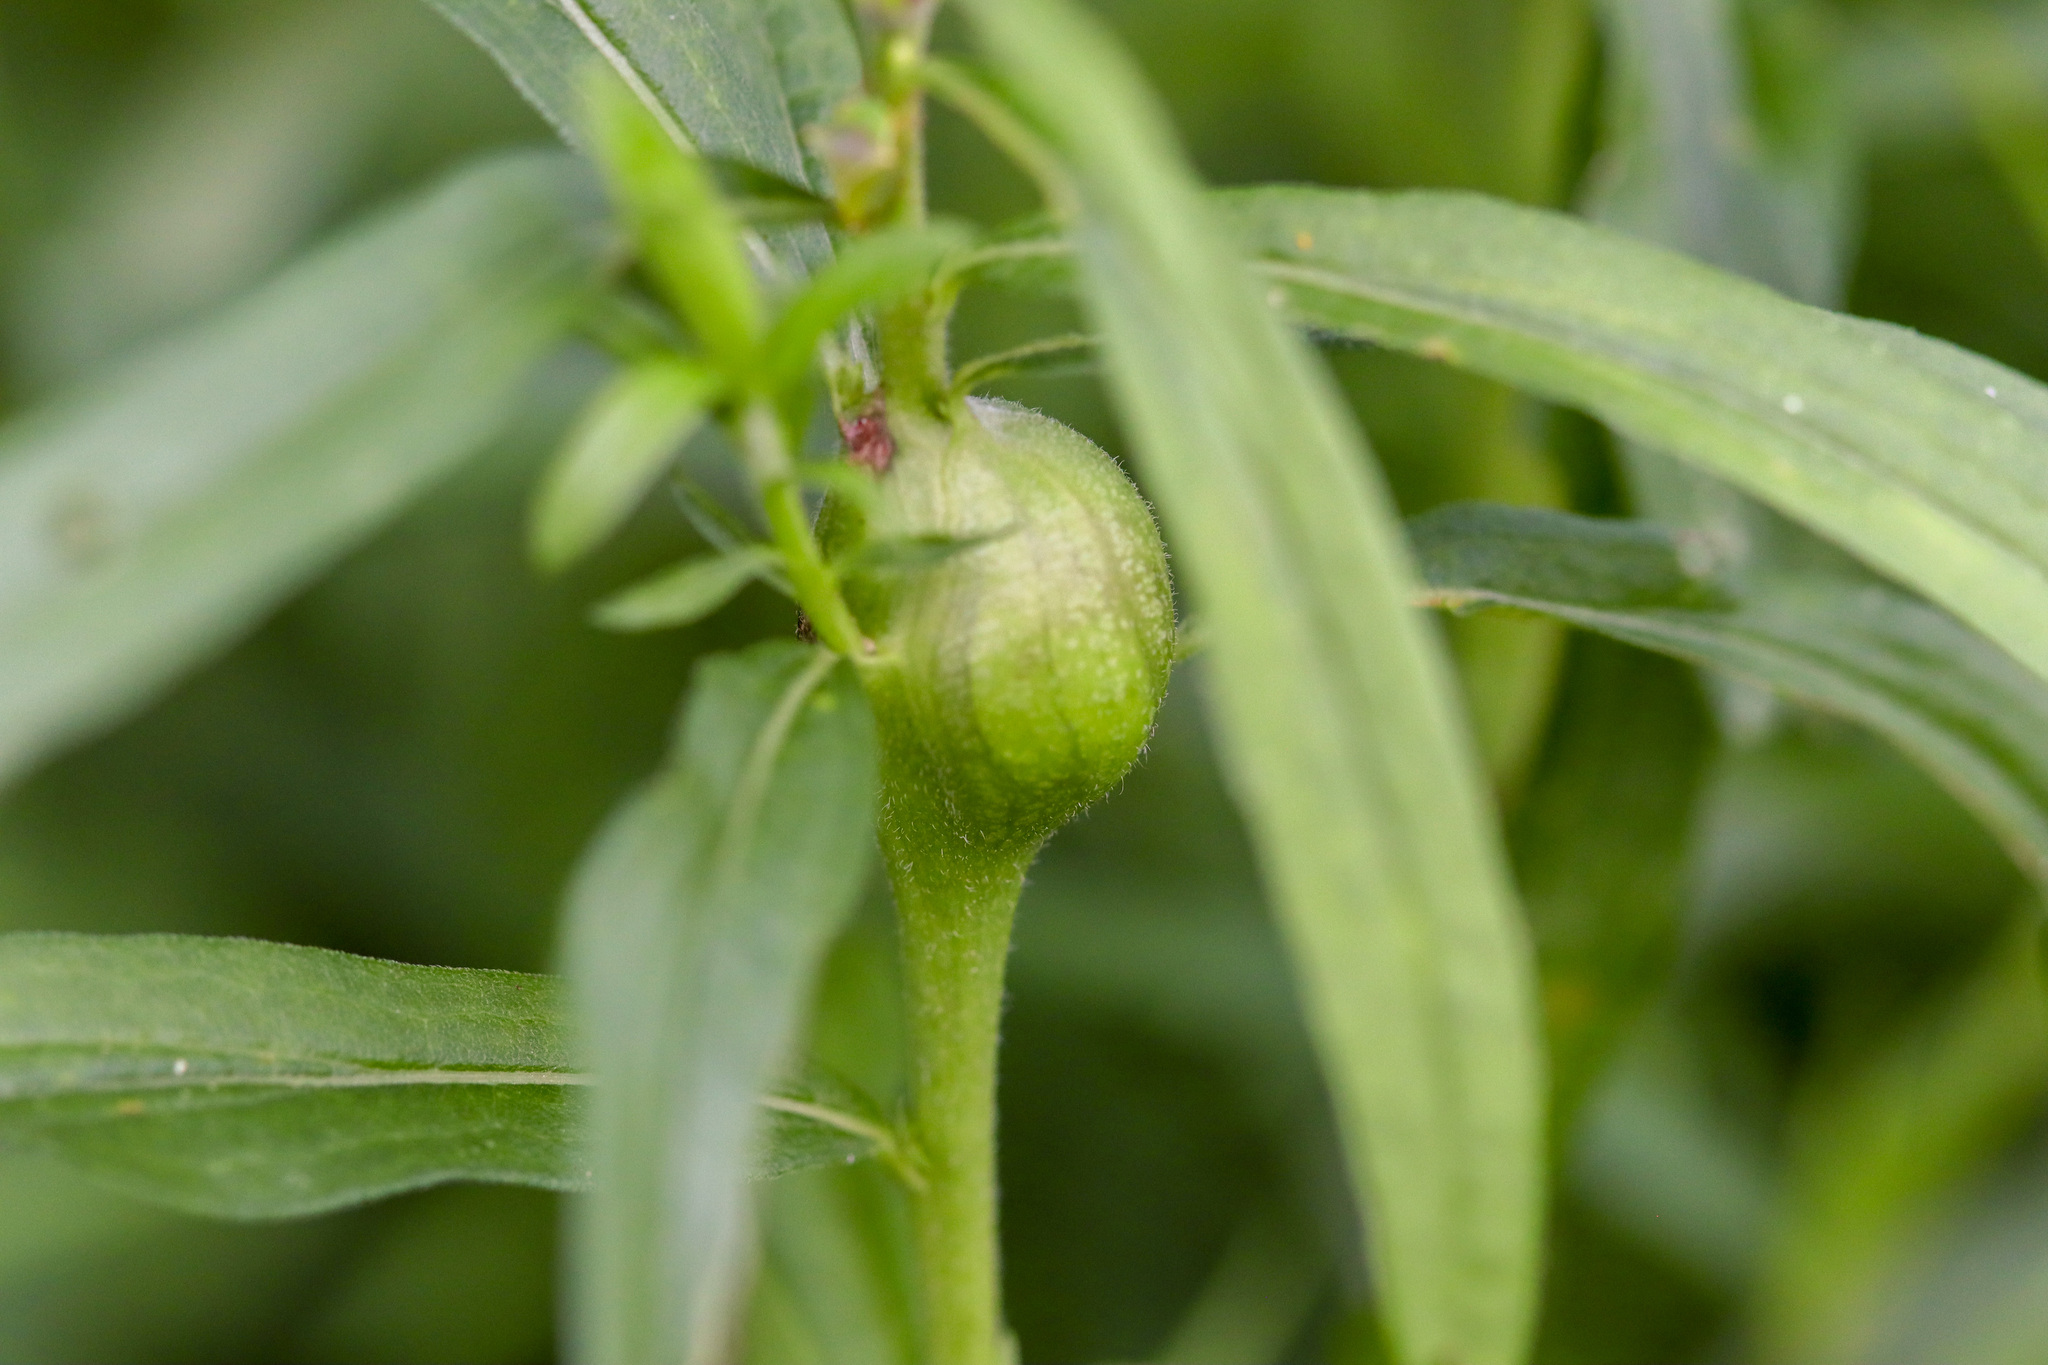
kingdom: Animalia
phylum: Arthropoda
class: Insecta
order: Diptera
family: Tephritidae
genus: Eurosta
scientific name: Eurosta solidaginis
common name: Goldenrod gall fly
